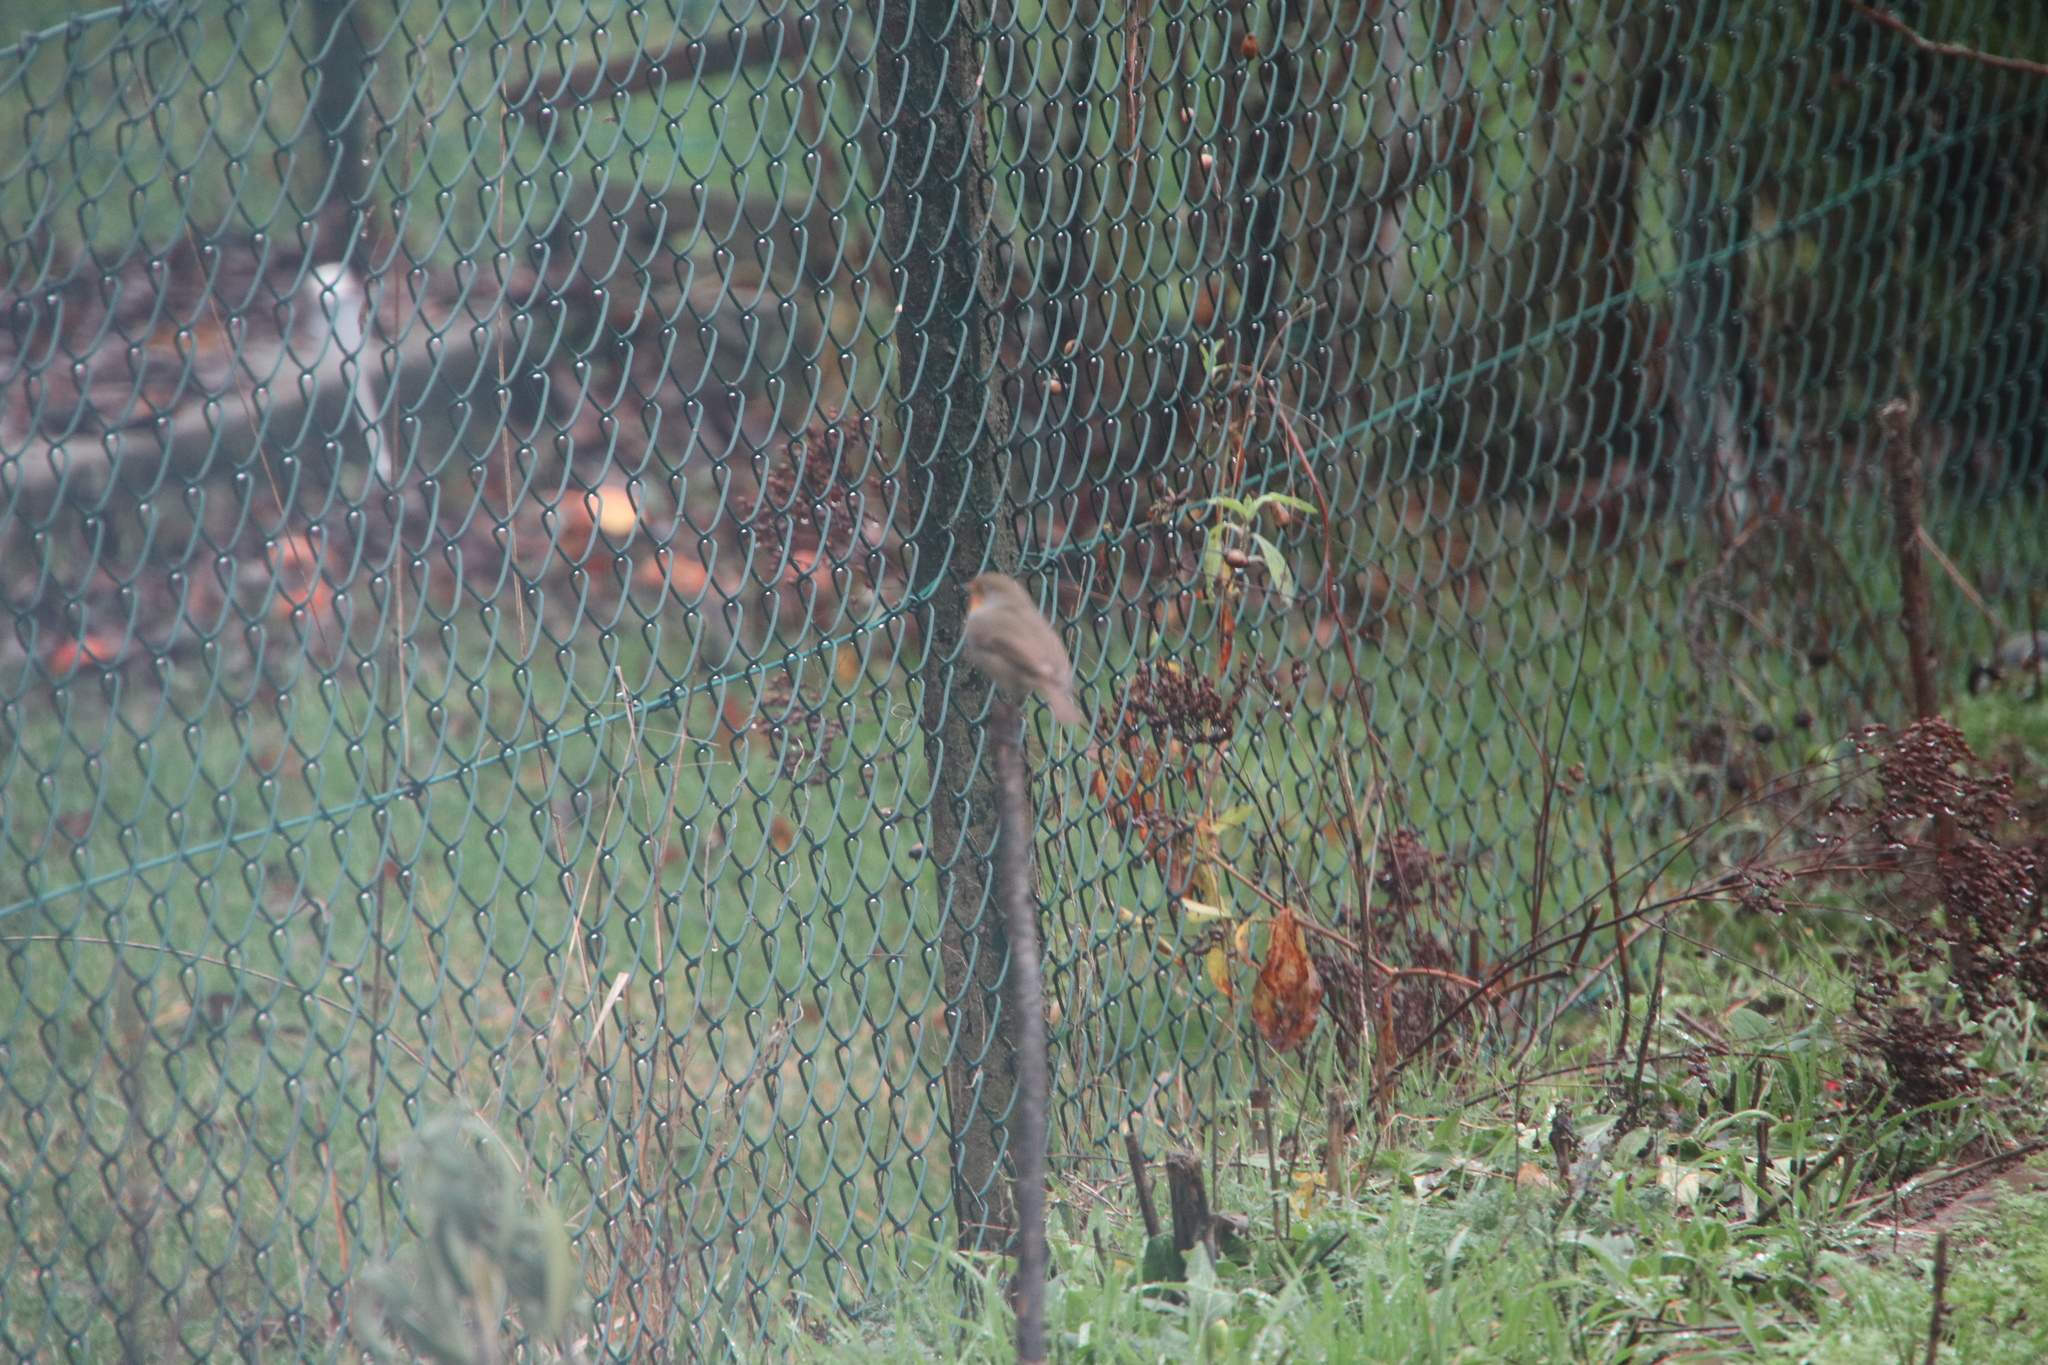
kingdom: Animalia
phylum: Chordata
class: Aves
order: Passeriformes
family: Muscicapidae
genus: Erithacus
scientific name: Erithacus rubecula
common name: European robin
